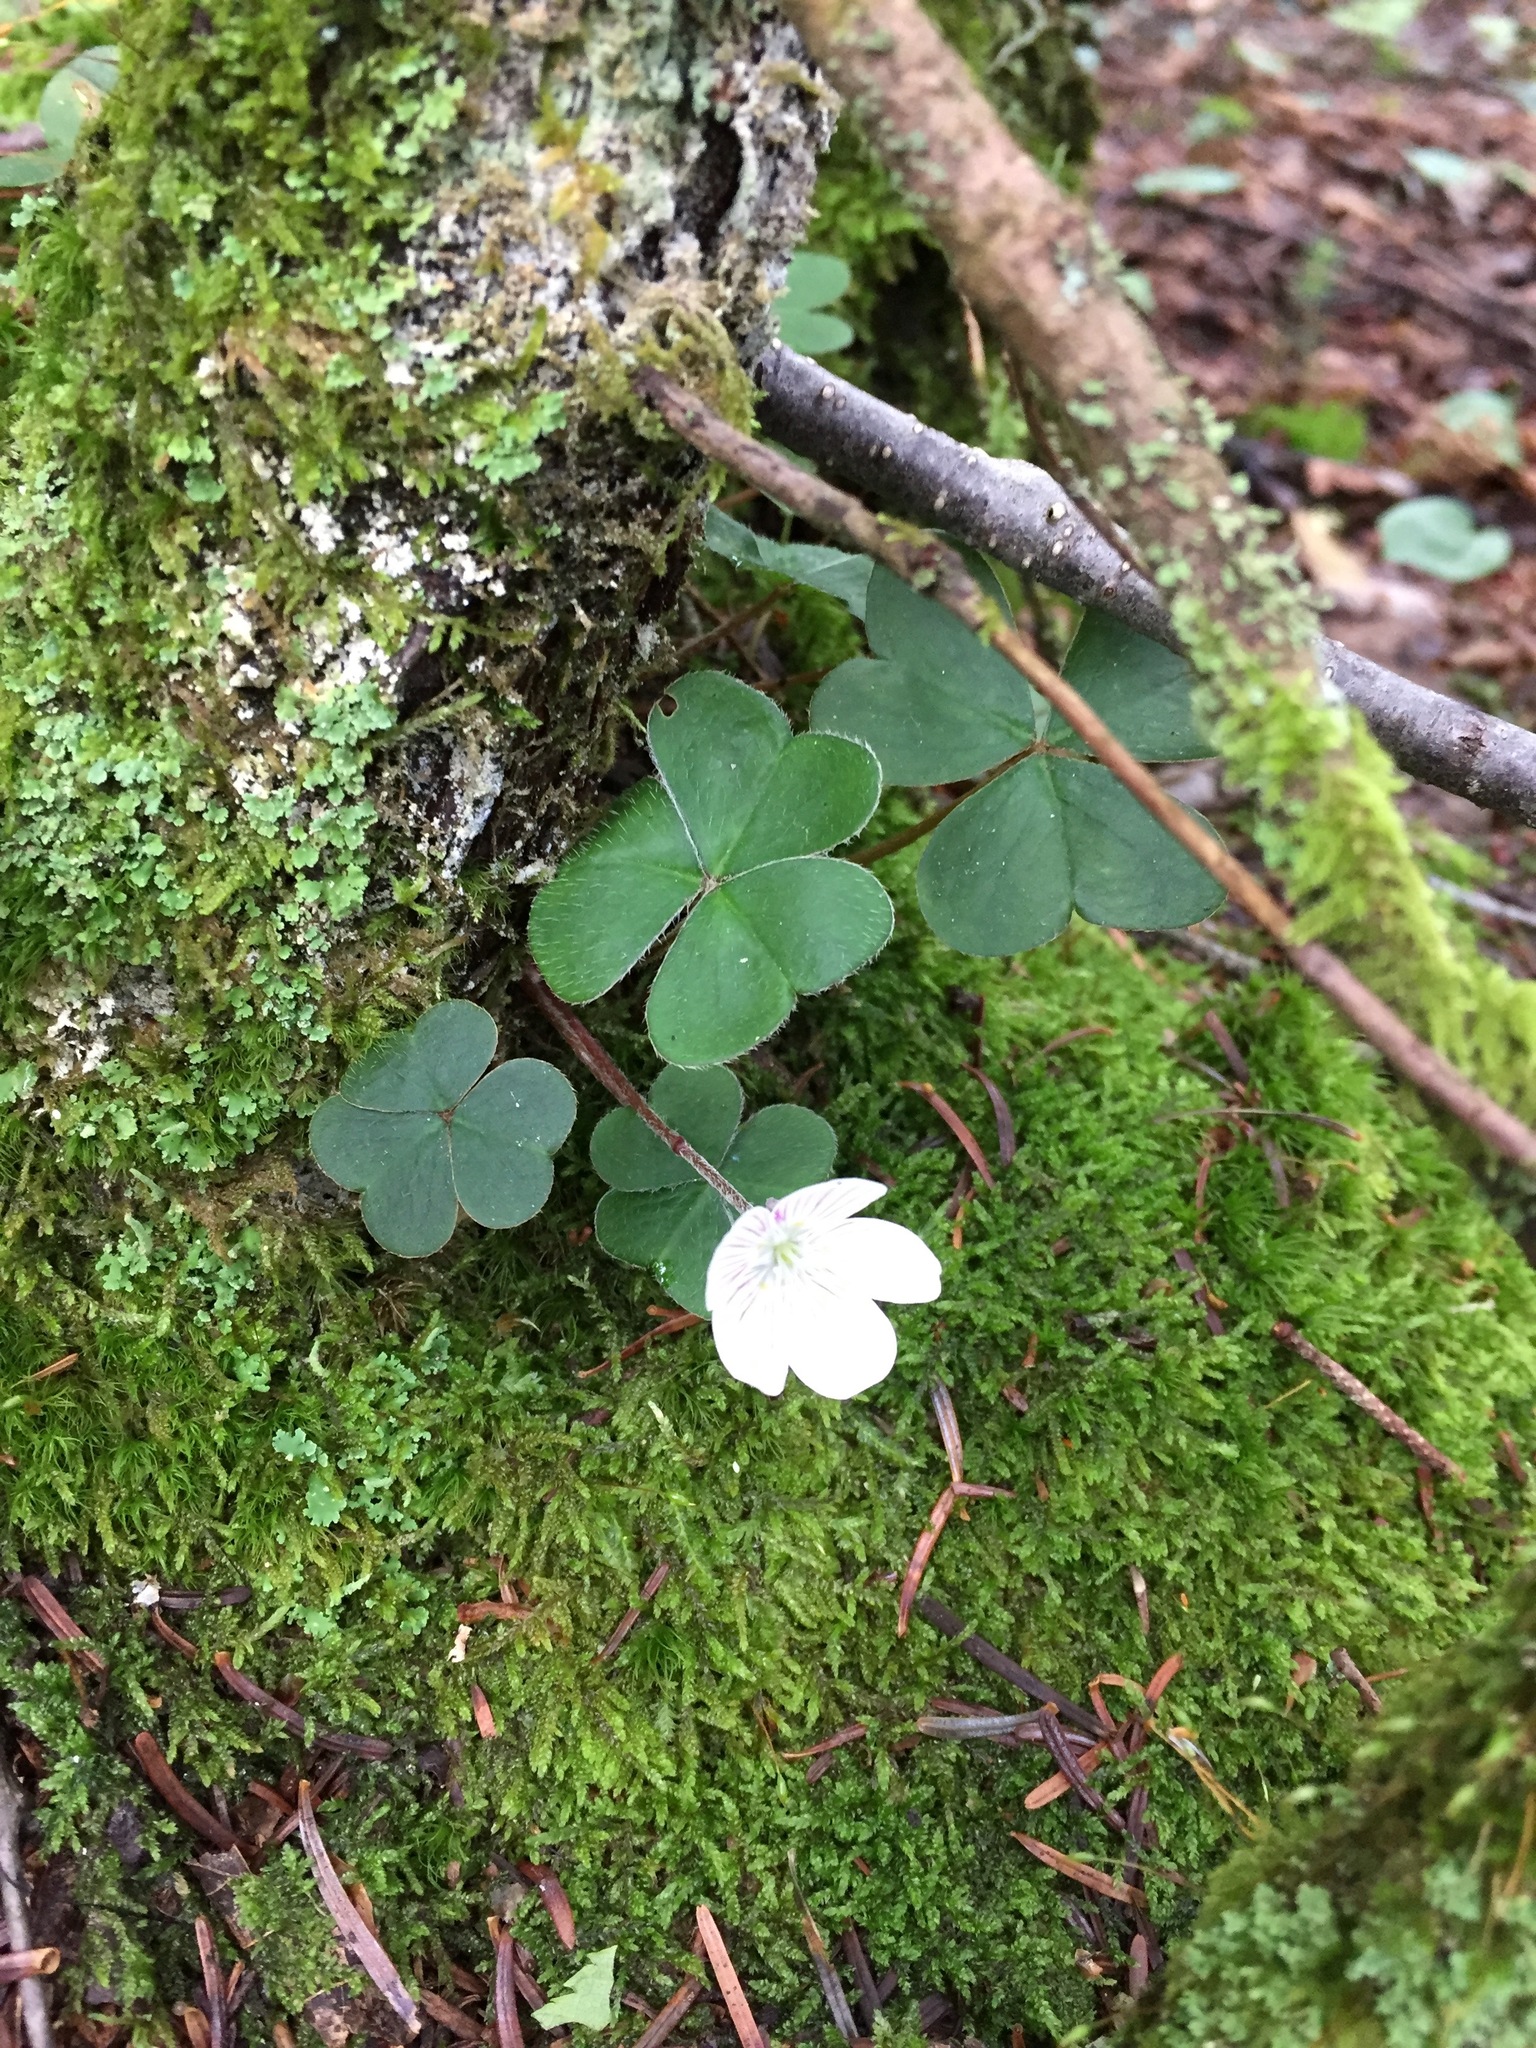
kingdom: Plantae
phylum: Tracheophyta
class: Magnoliopsida
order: Oxalidales
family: Oxalidaceae
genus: Oxalis
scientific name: Oxalis montana
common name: American wood-sorrel
